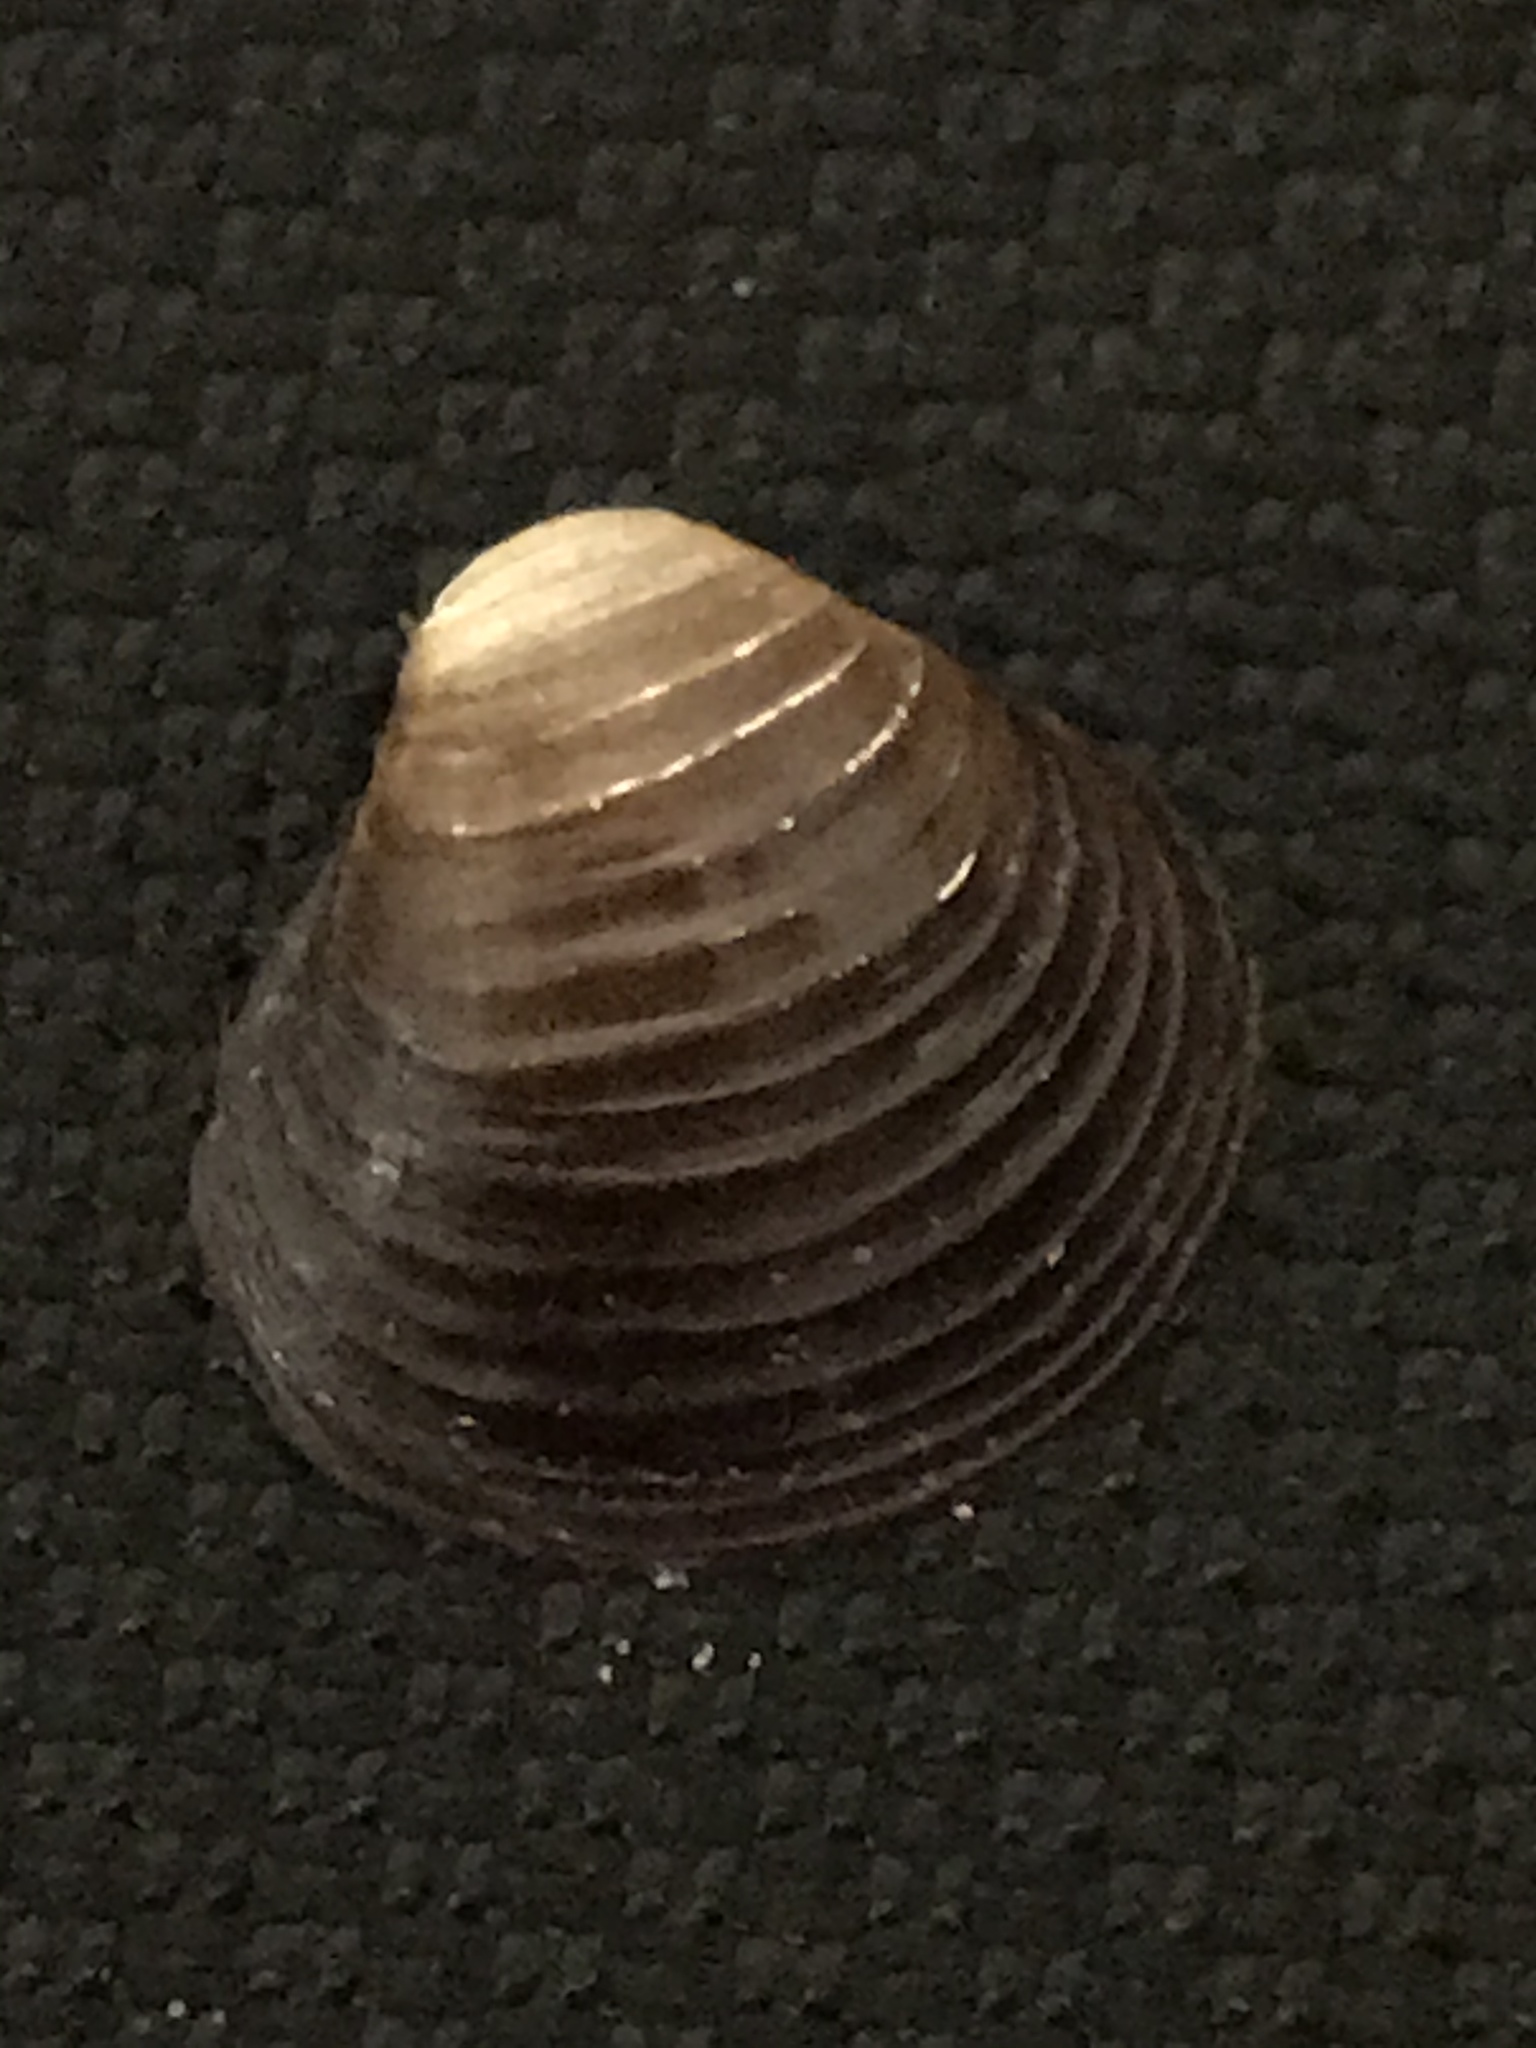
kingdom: Animalia
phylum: Mollusca
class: Bivalvia
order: Venerida
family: Cyrenidae
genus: Corbicula
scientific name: Corbicula fluminea
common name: Asian clam
